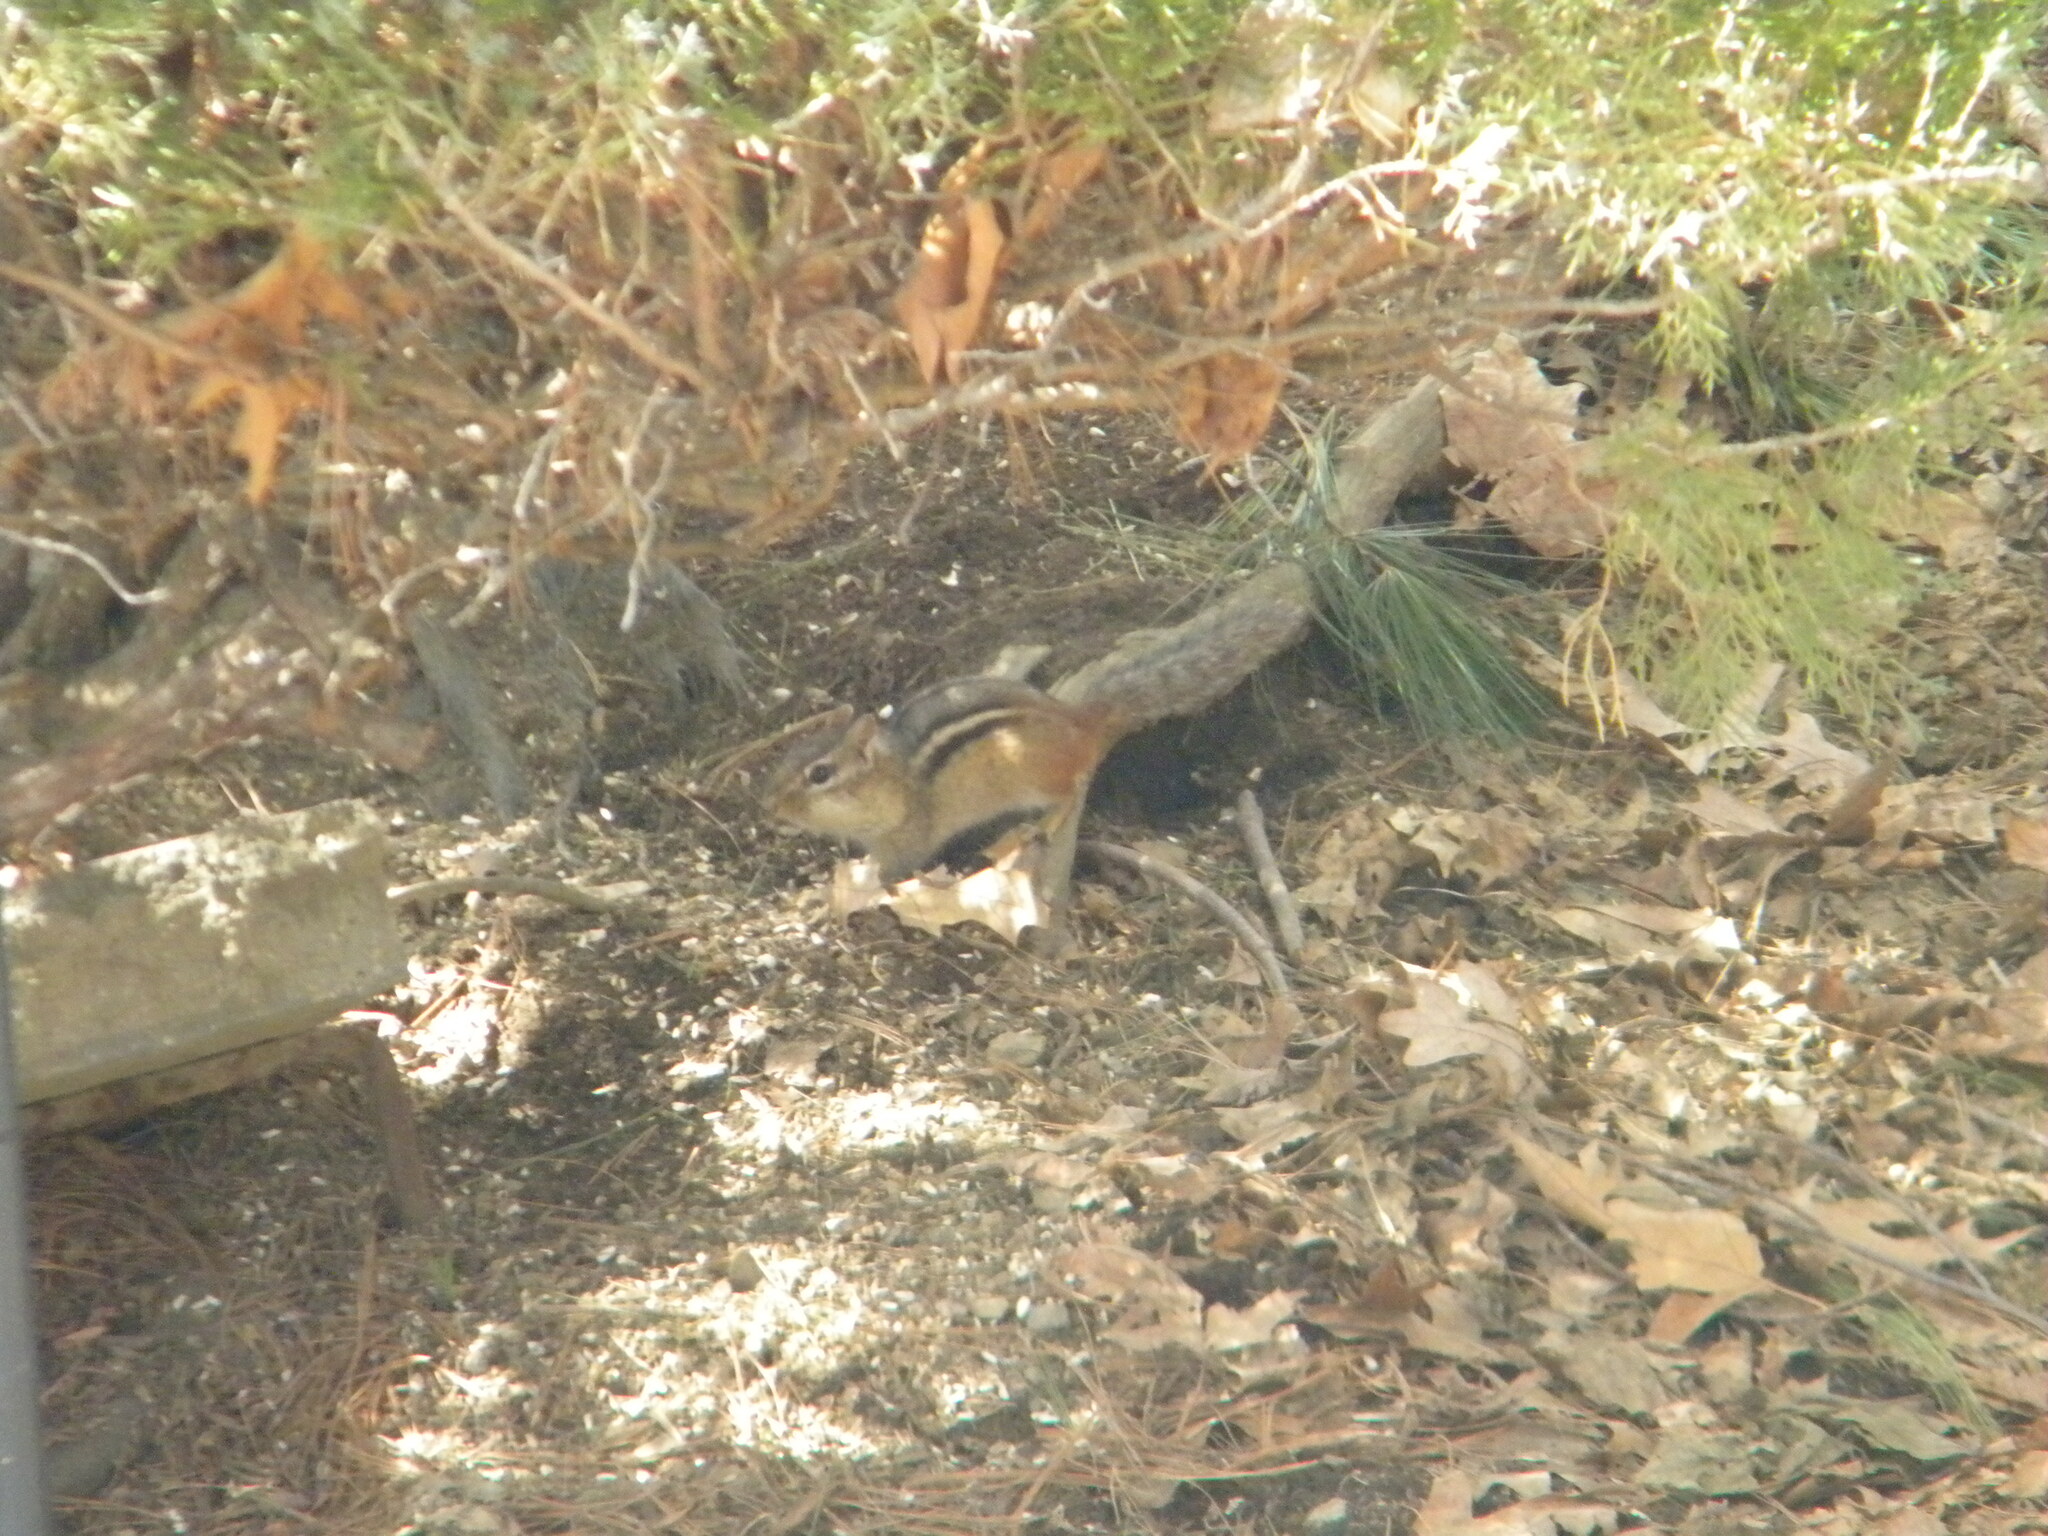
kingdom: Animalia
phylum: Chordata
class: Mammalia
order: Rodentia
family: Sciuridae
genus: Tamias
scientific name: Tamias striatus
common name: Eastern chipmunk
